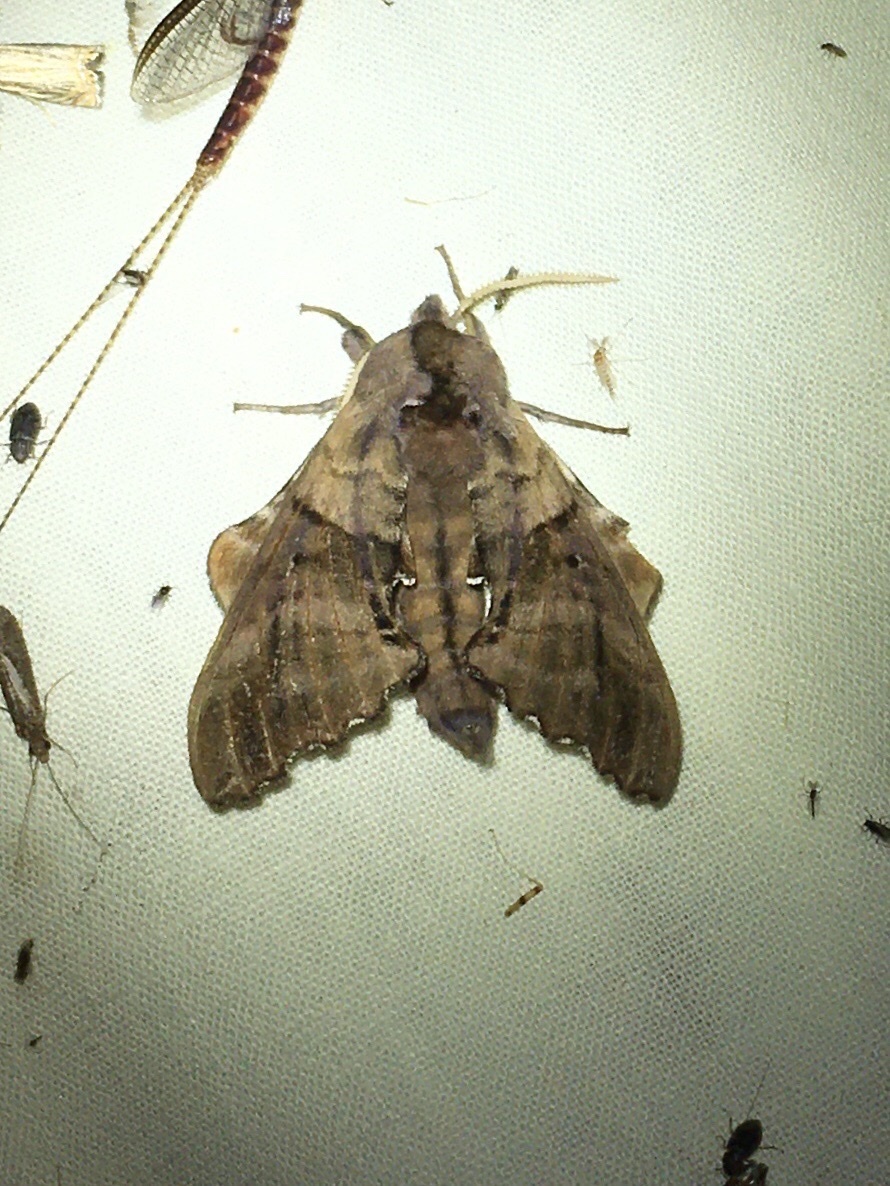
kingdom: Animalia
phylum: Arthropoda
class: Insecta
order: Lepidoptera
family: Sphingidae
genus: Paonias
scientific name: Paonias excaecata
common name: Blind-eyed sphinx
